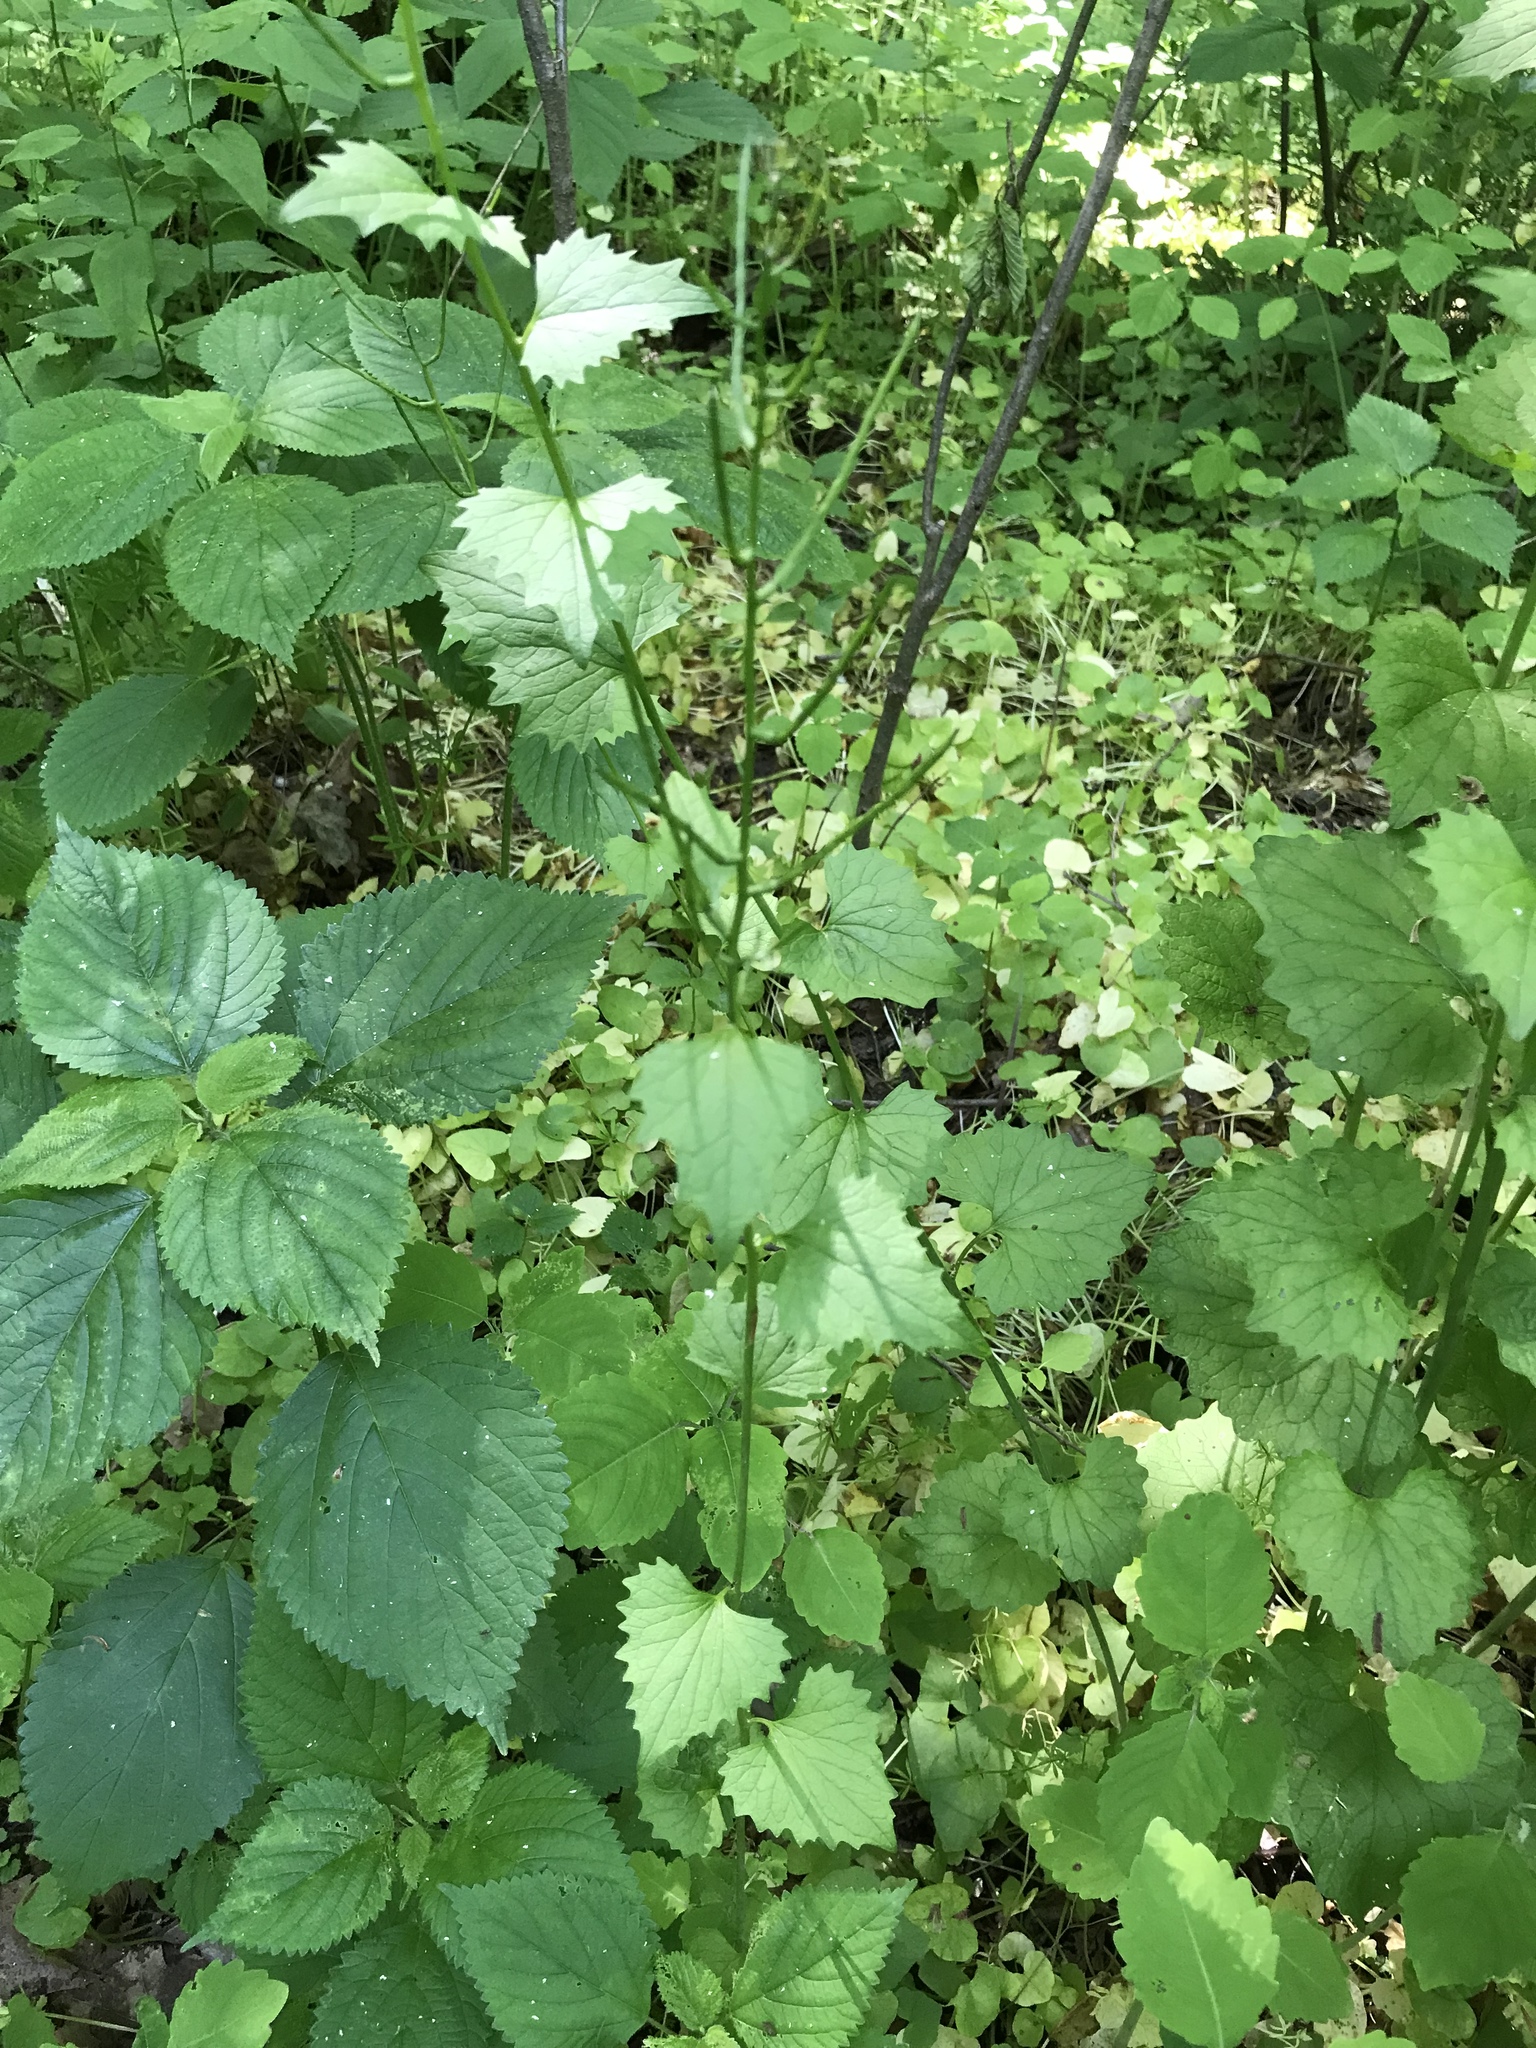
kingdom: Plantae
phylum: Tracheophyta
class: Magnoliopsida
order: Brassicales
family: Brassicaceae
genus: Alliaria
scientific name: Alliaria petiolata
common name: Garlic mustard
